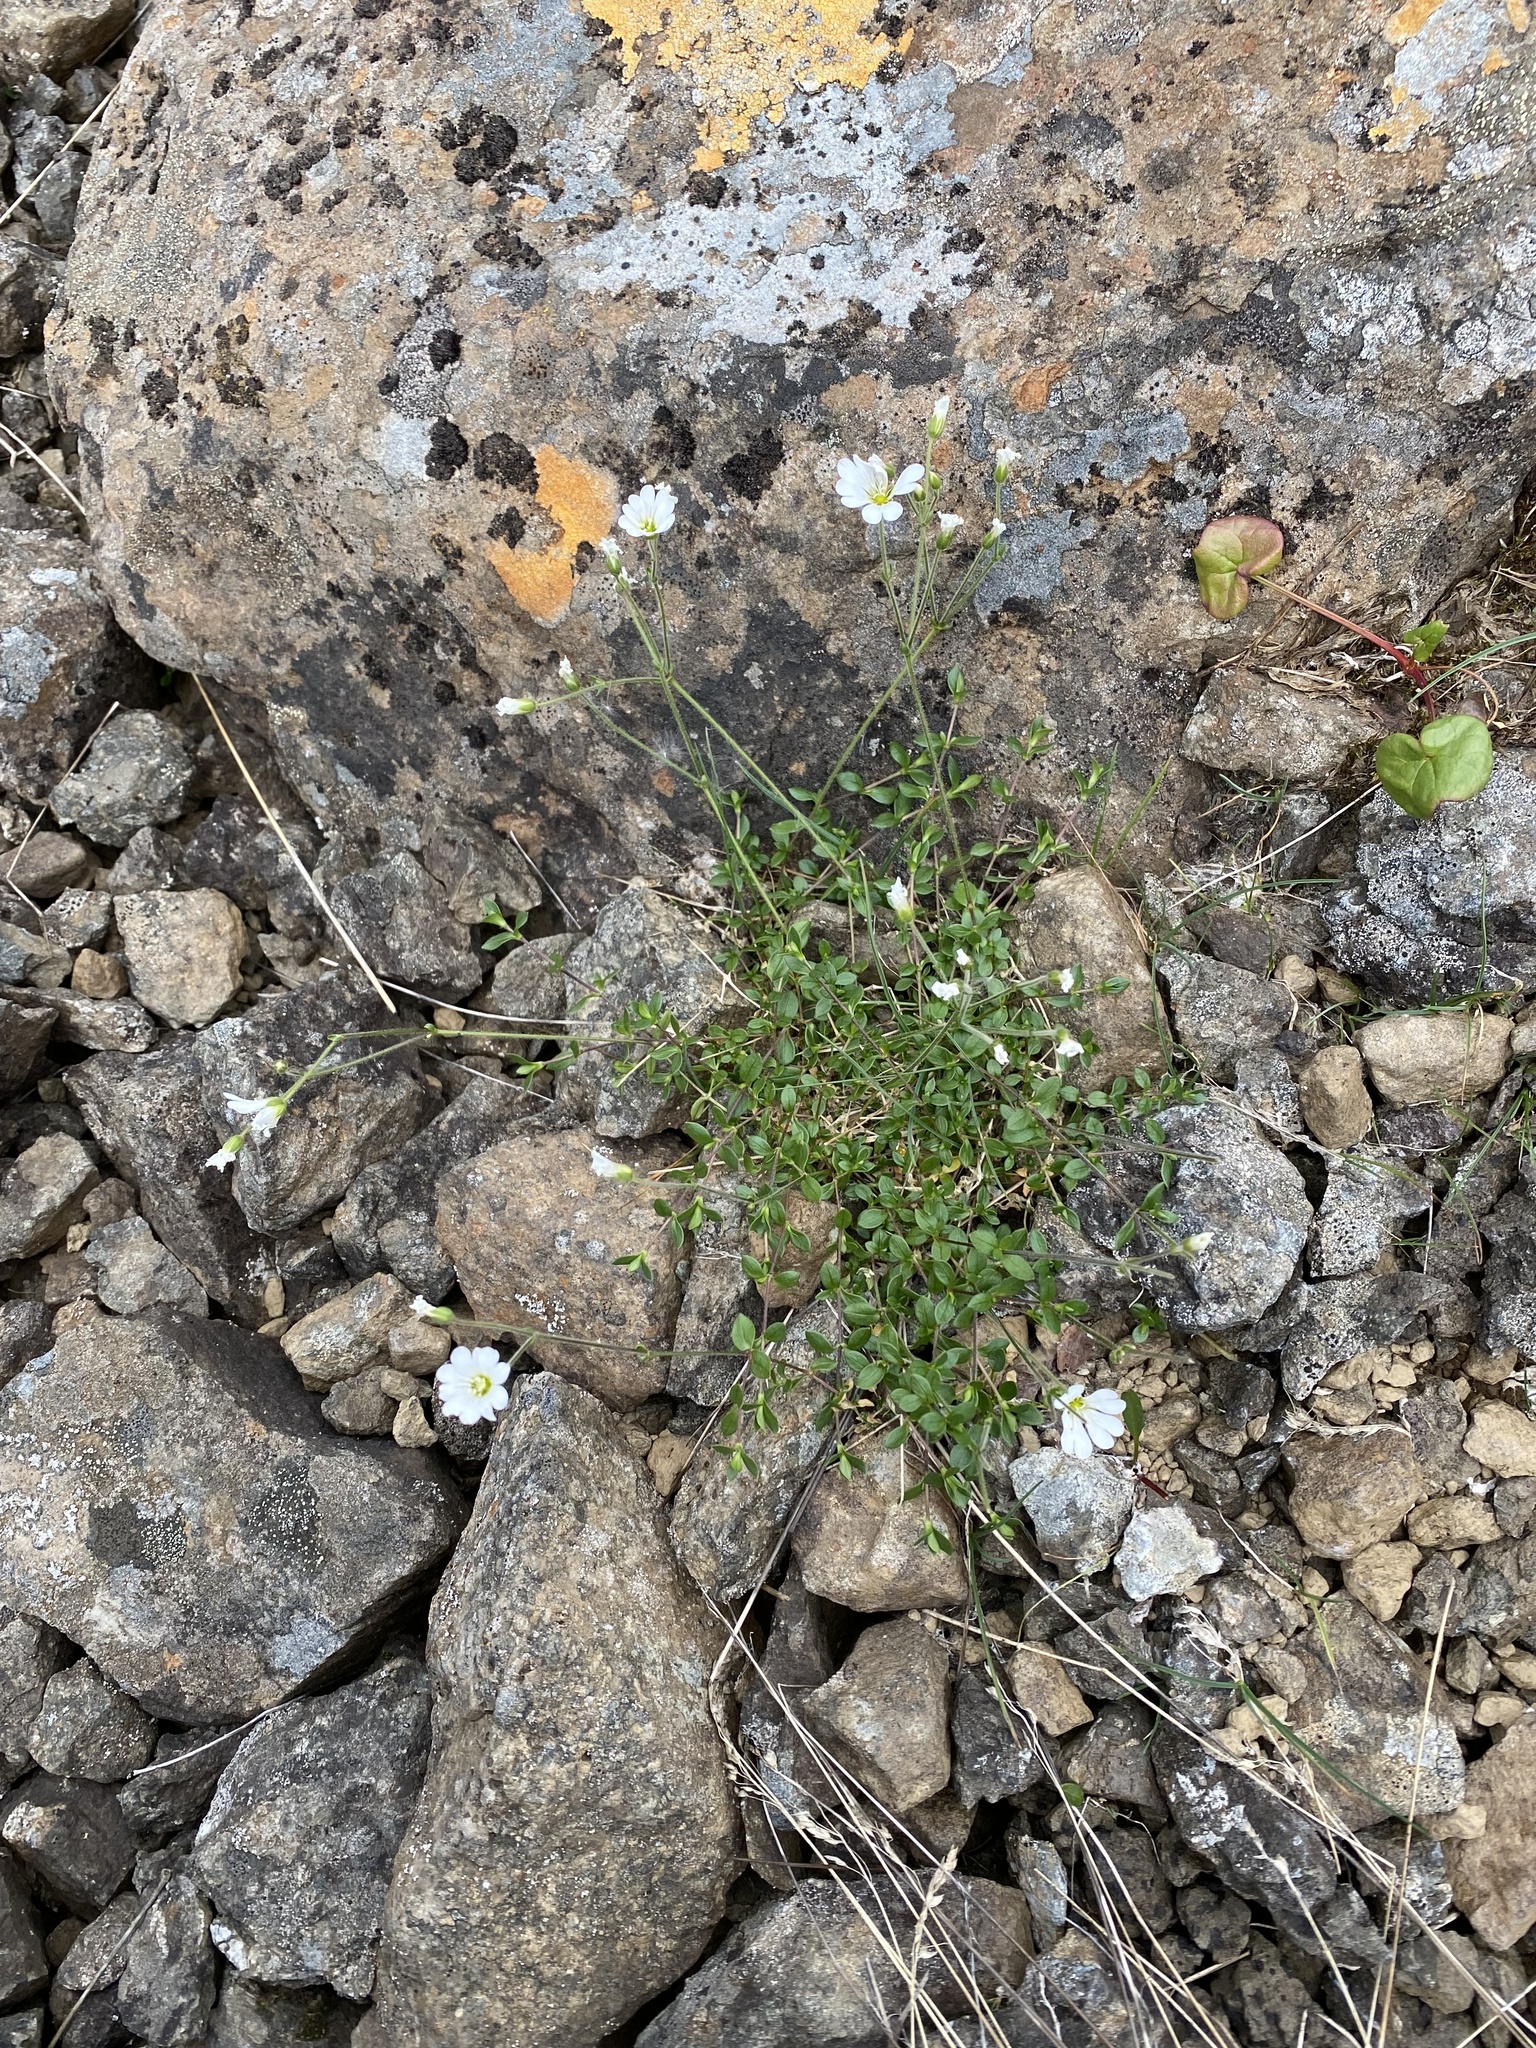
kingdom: Plantae
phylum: Tracheophyta
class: Magnoliopsida
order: Caryophyllales
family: Caryophyllaceae
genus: Cerastium
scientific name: Cerastium regelii
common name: Regel's chickweed
